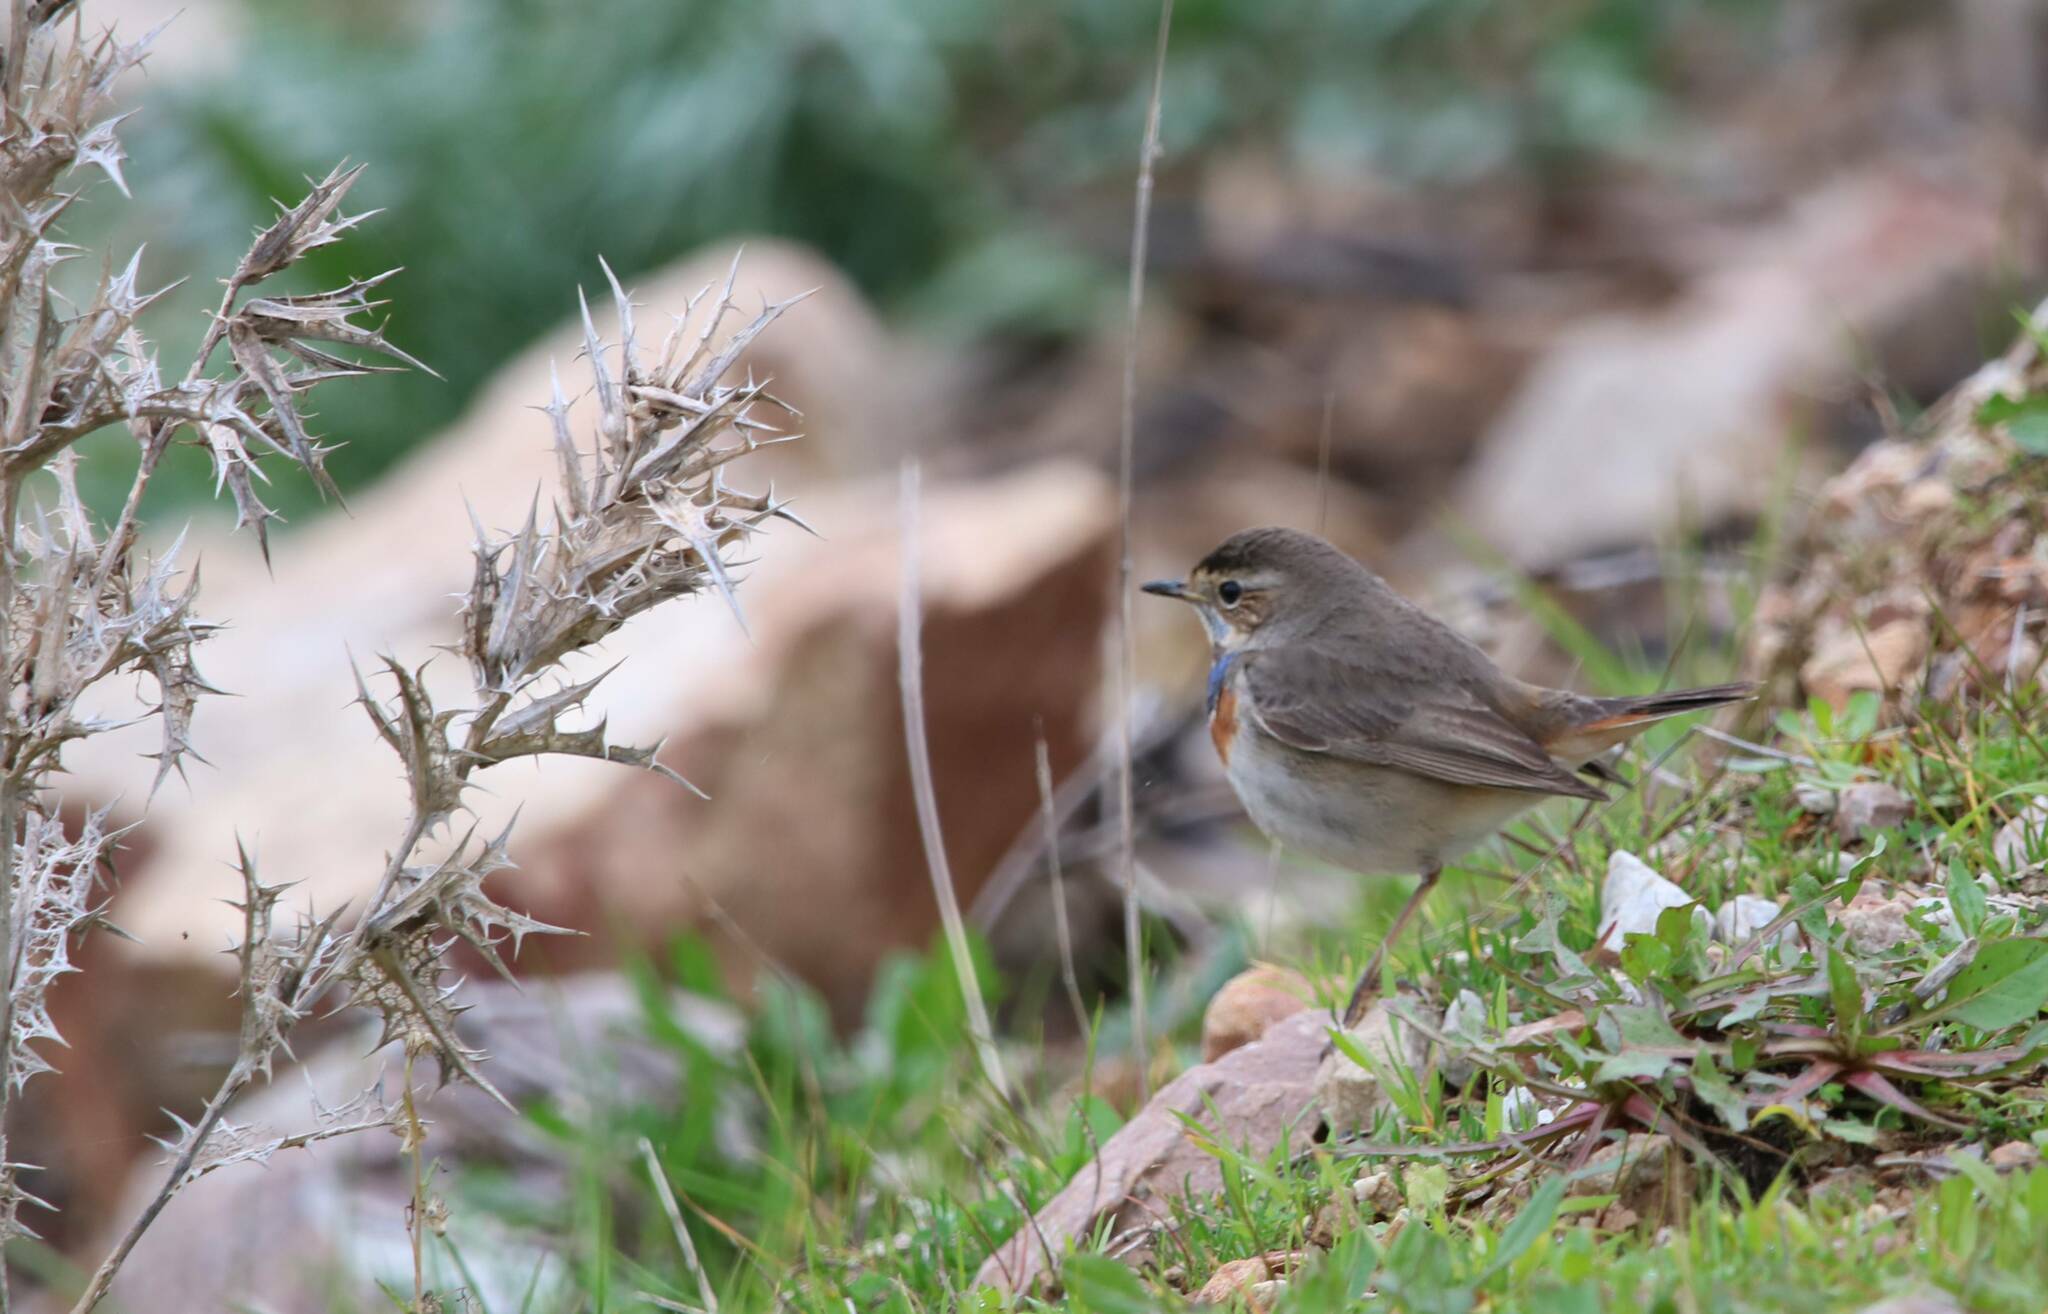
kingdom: Animalia
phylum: Chordata
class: Aves
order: Passeriformes
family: Muscicapidae
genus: Luscinia
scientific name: Luscinia svecica
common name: Bluethroat
